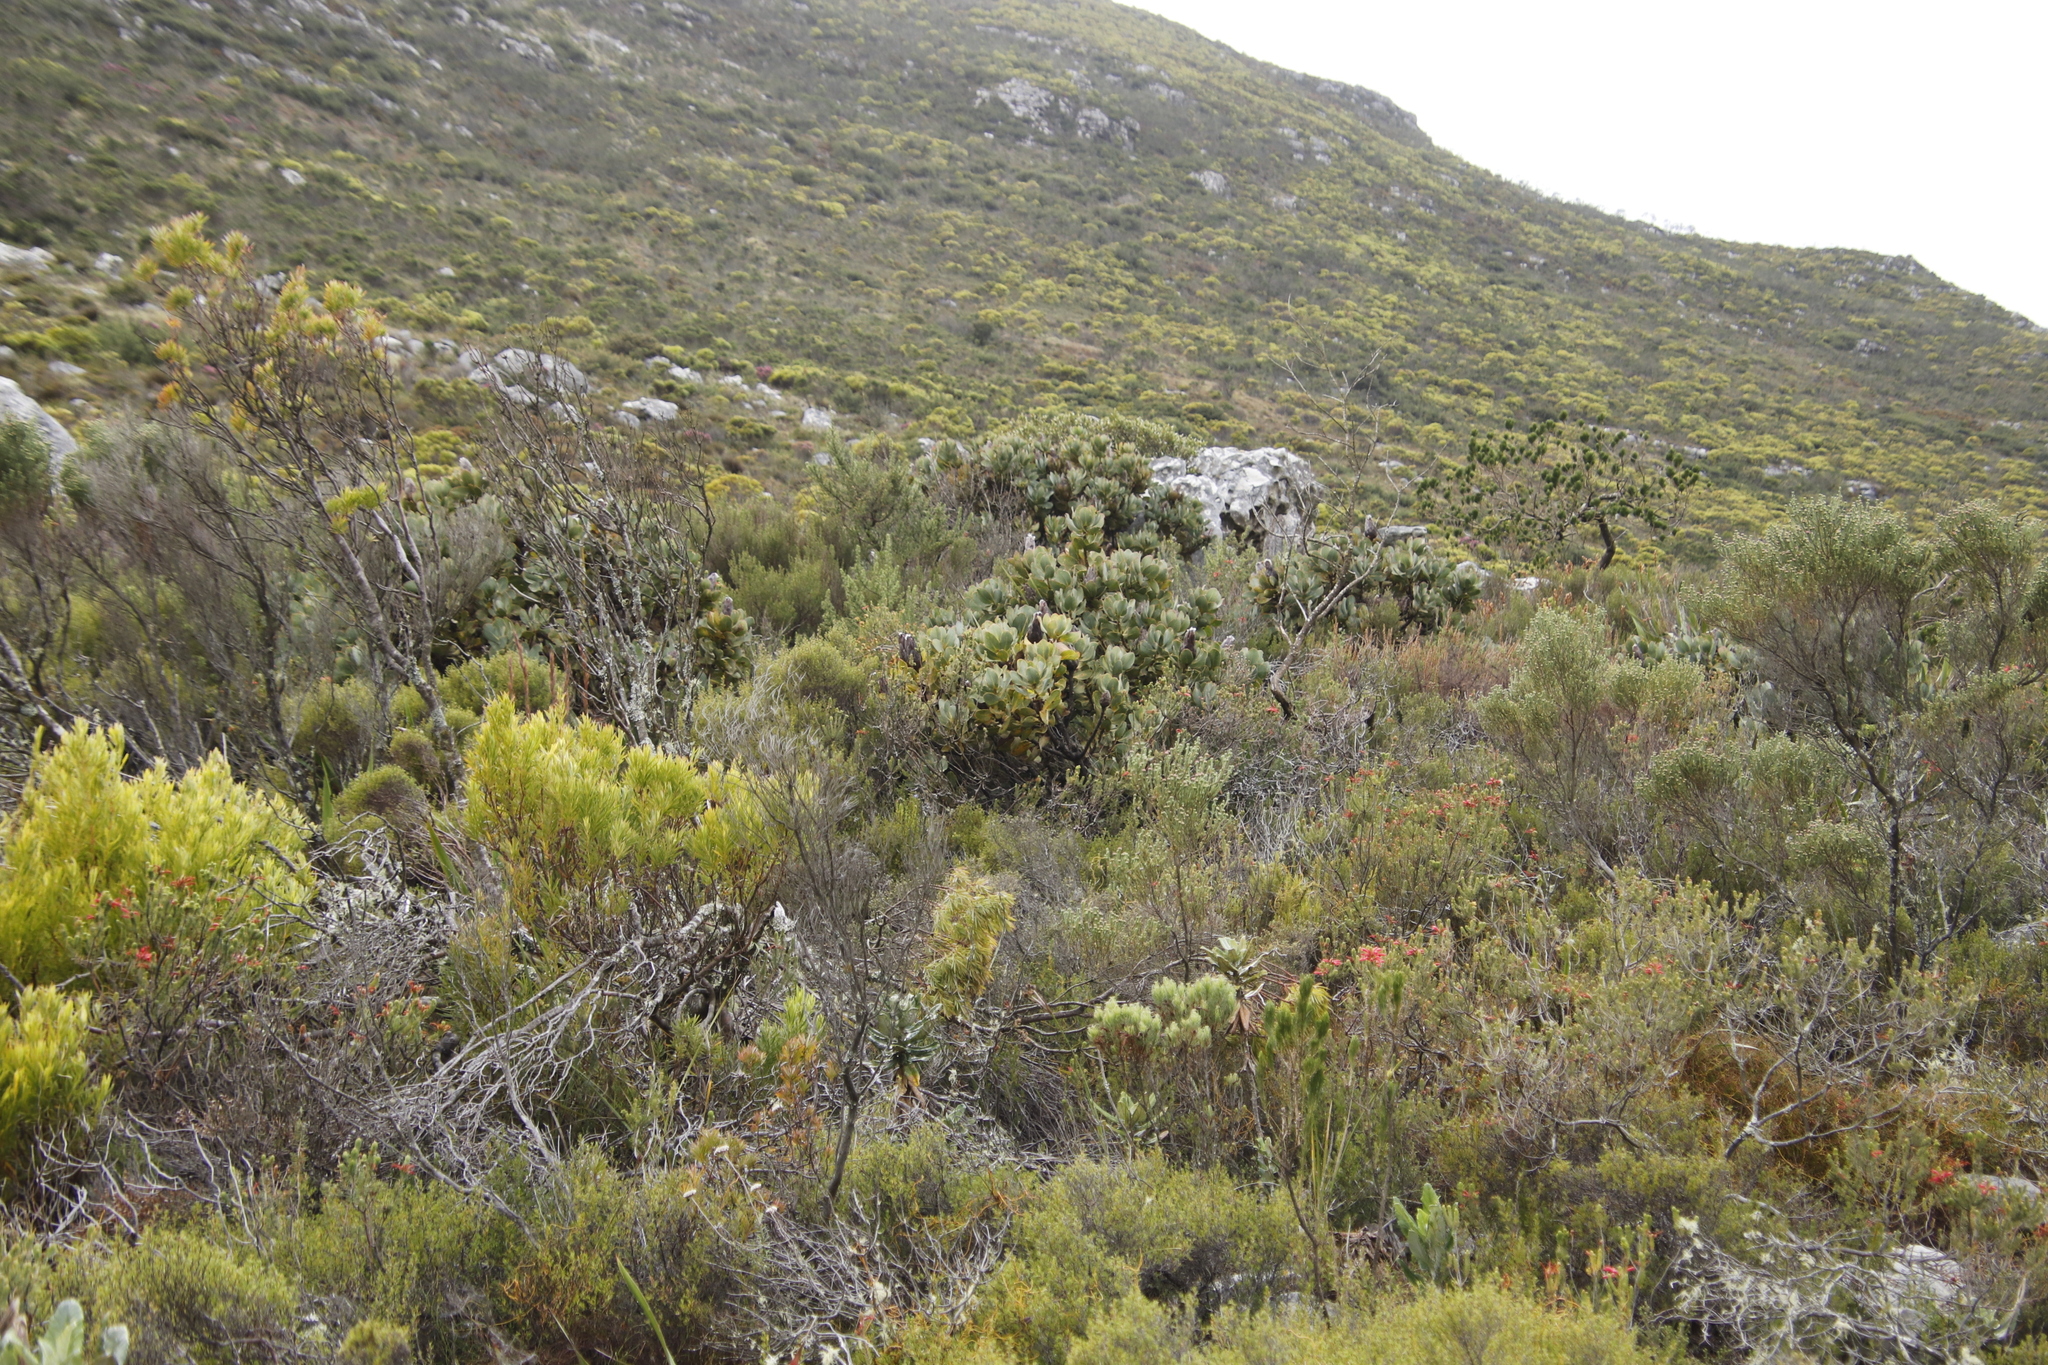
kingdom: Plantae
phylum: Tracheophyta
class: Magnoliopsida
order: Proteales
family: Proteaceae
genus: Protea
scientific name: Protea grandiceps
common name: Red sugarbush
